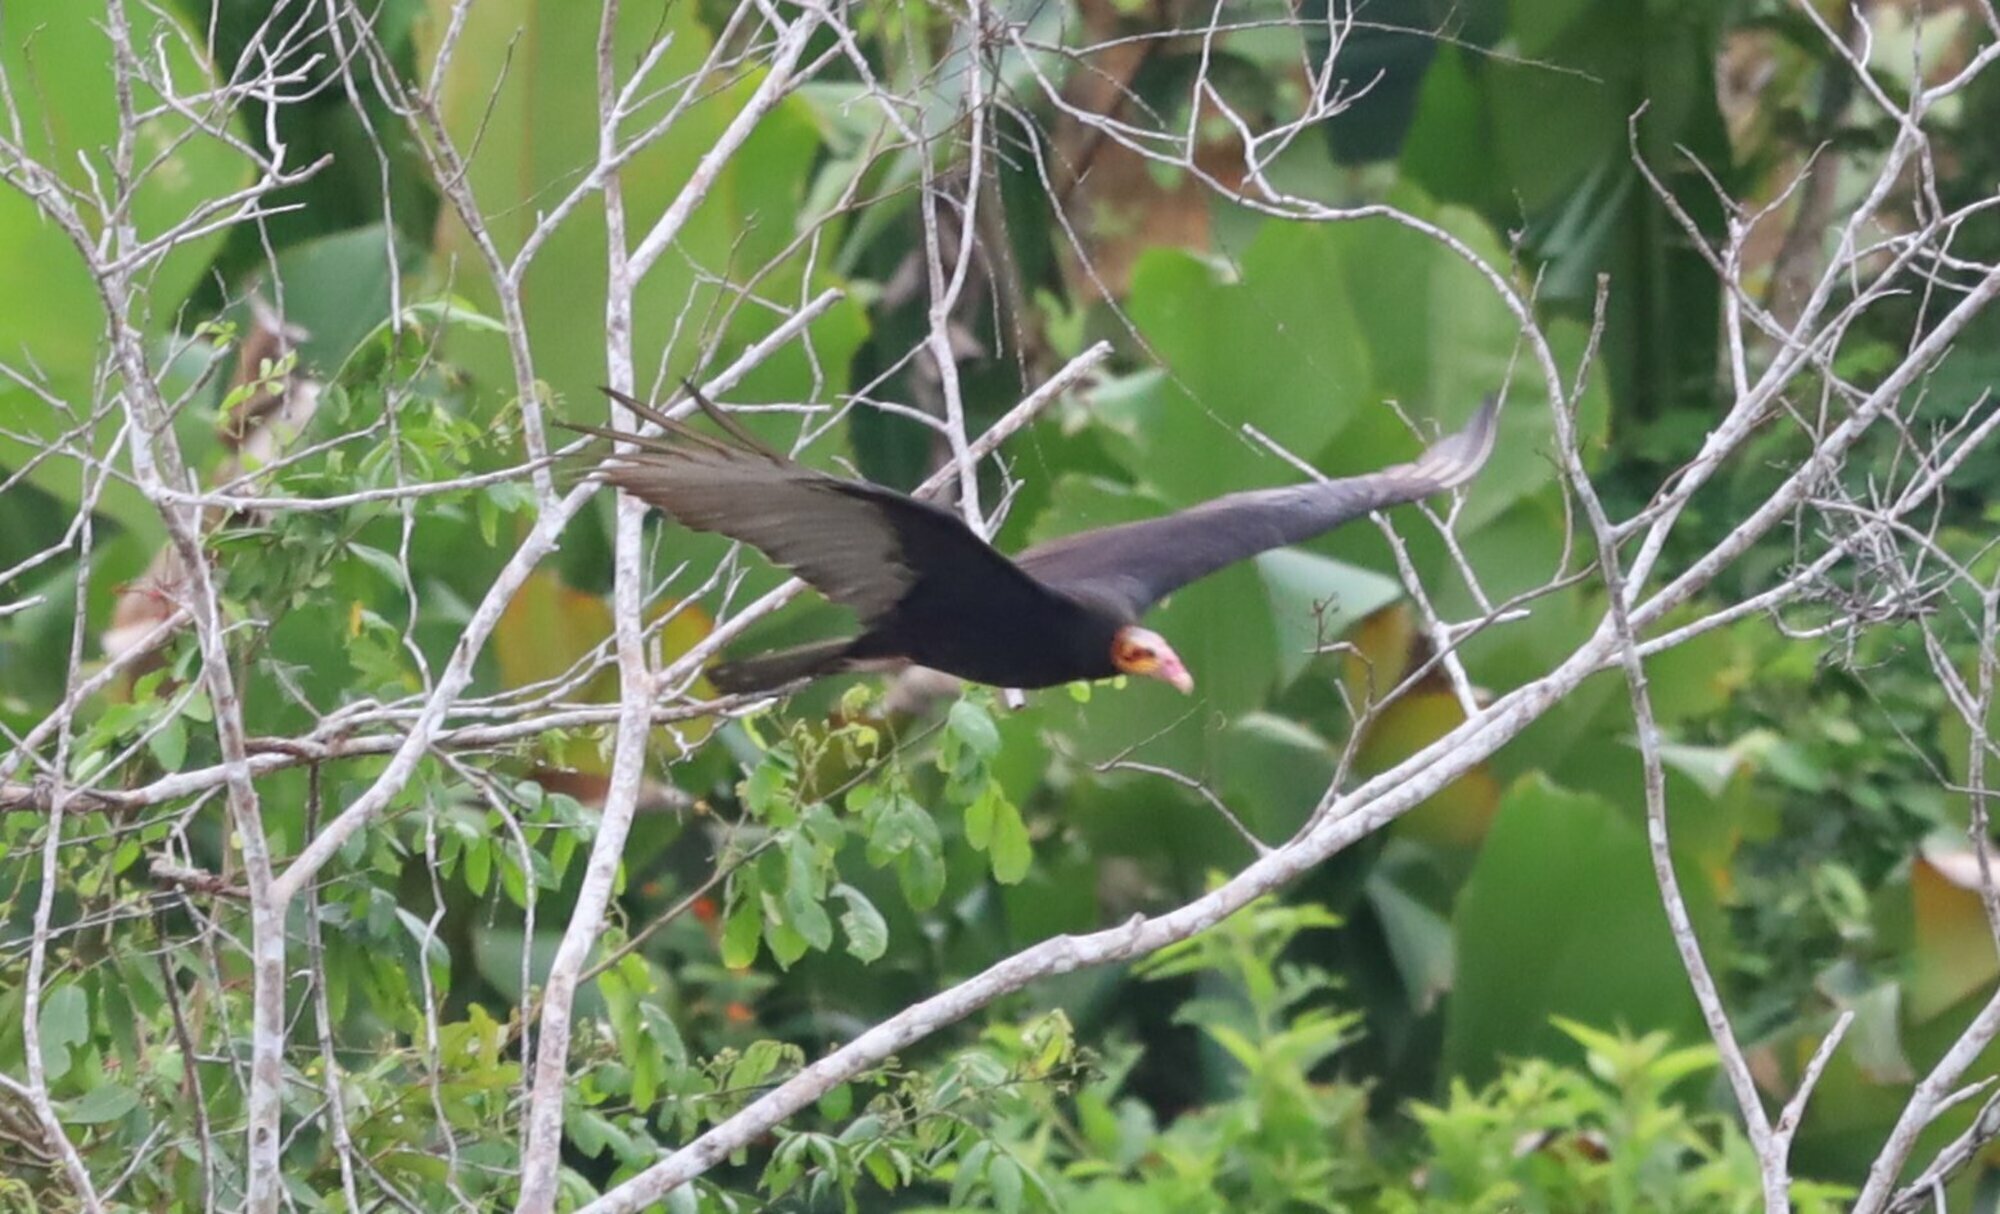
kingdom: Animalia
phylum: Chordata
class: Aves
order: Accipitriformes
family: Cathartidae
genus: Cathartes
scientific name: Cathartes burrovianus
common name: Lesser yellow-headed vulture
